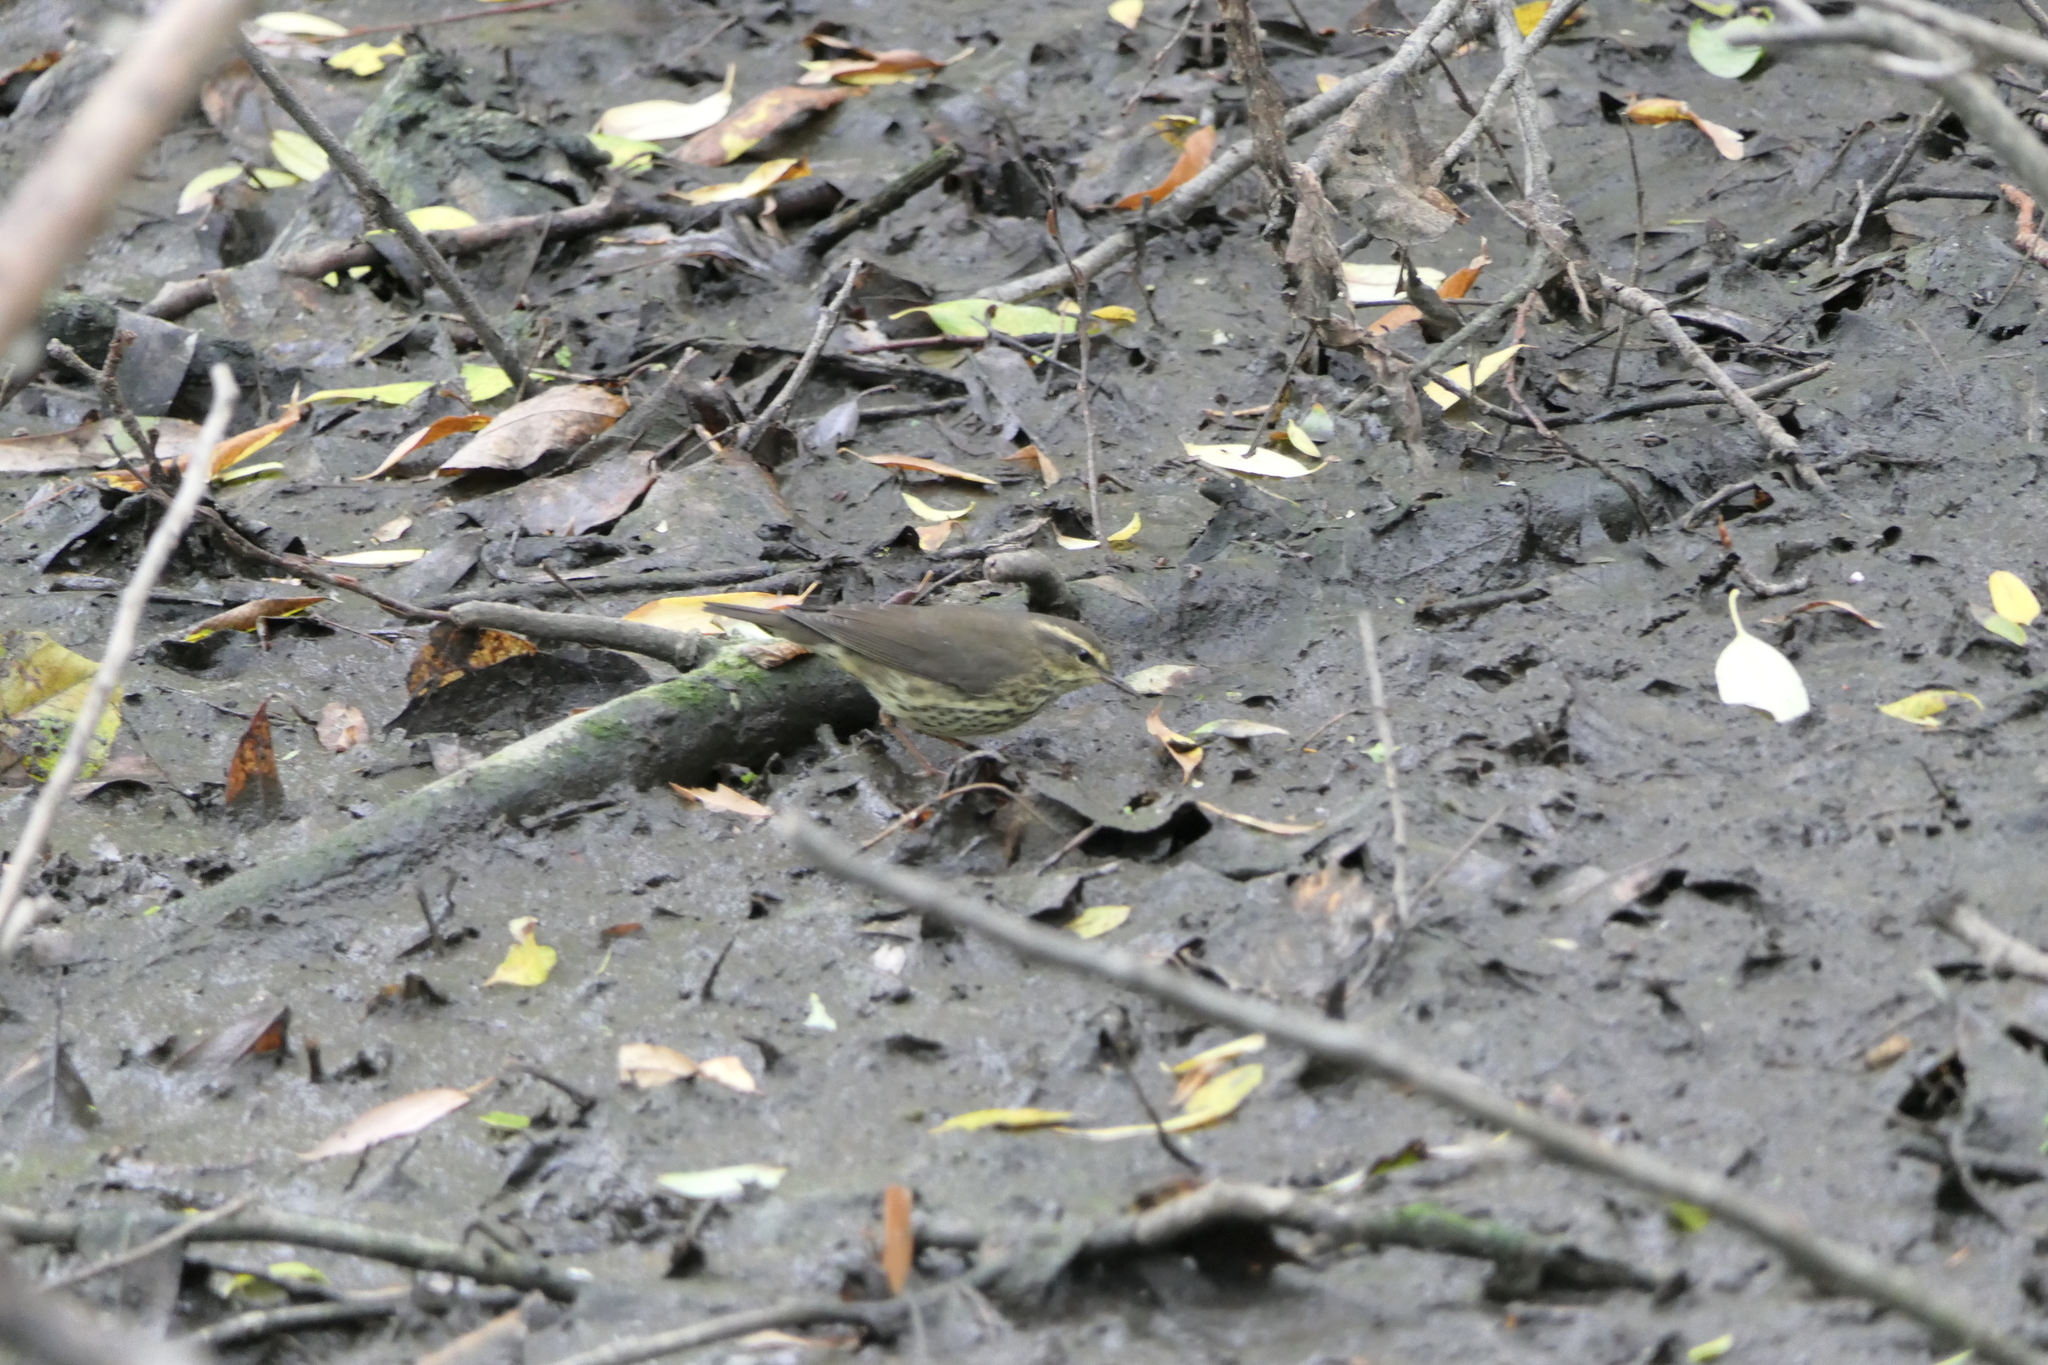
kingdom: Animalia
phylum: Chordata
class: Aves
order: Passeriformes
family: Parulidae
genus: Parkesia
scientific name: Parkesia noveboracensis
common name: Northern waterthrush
